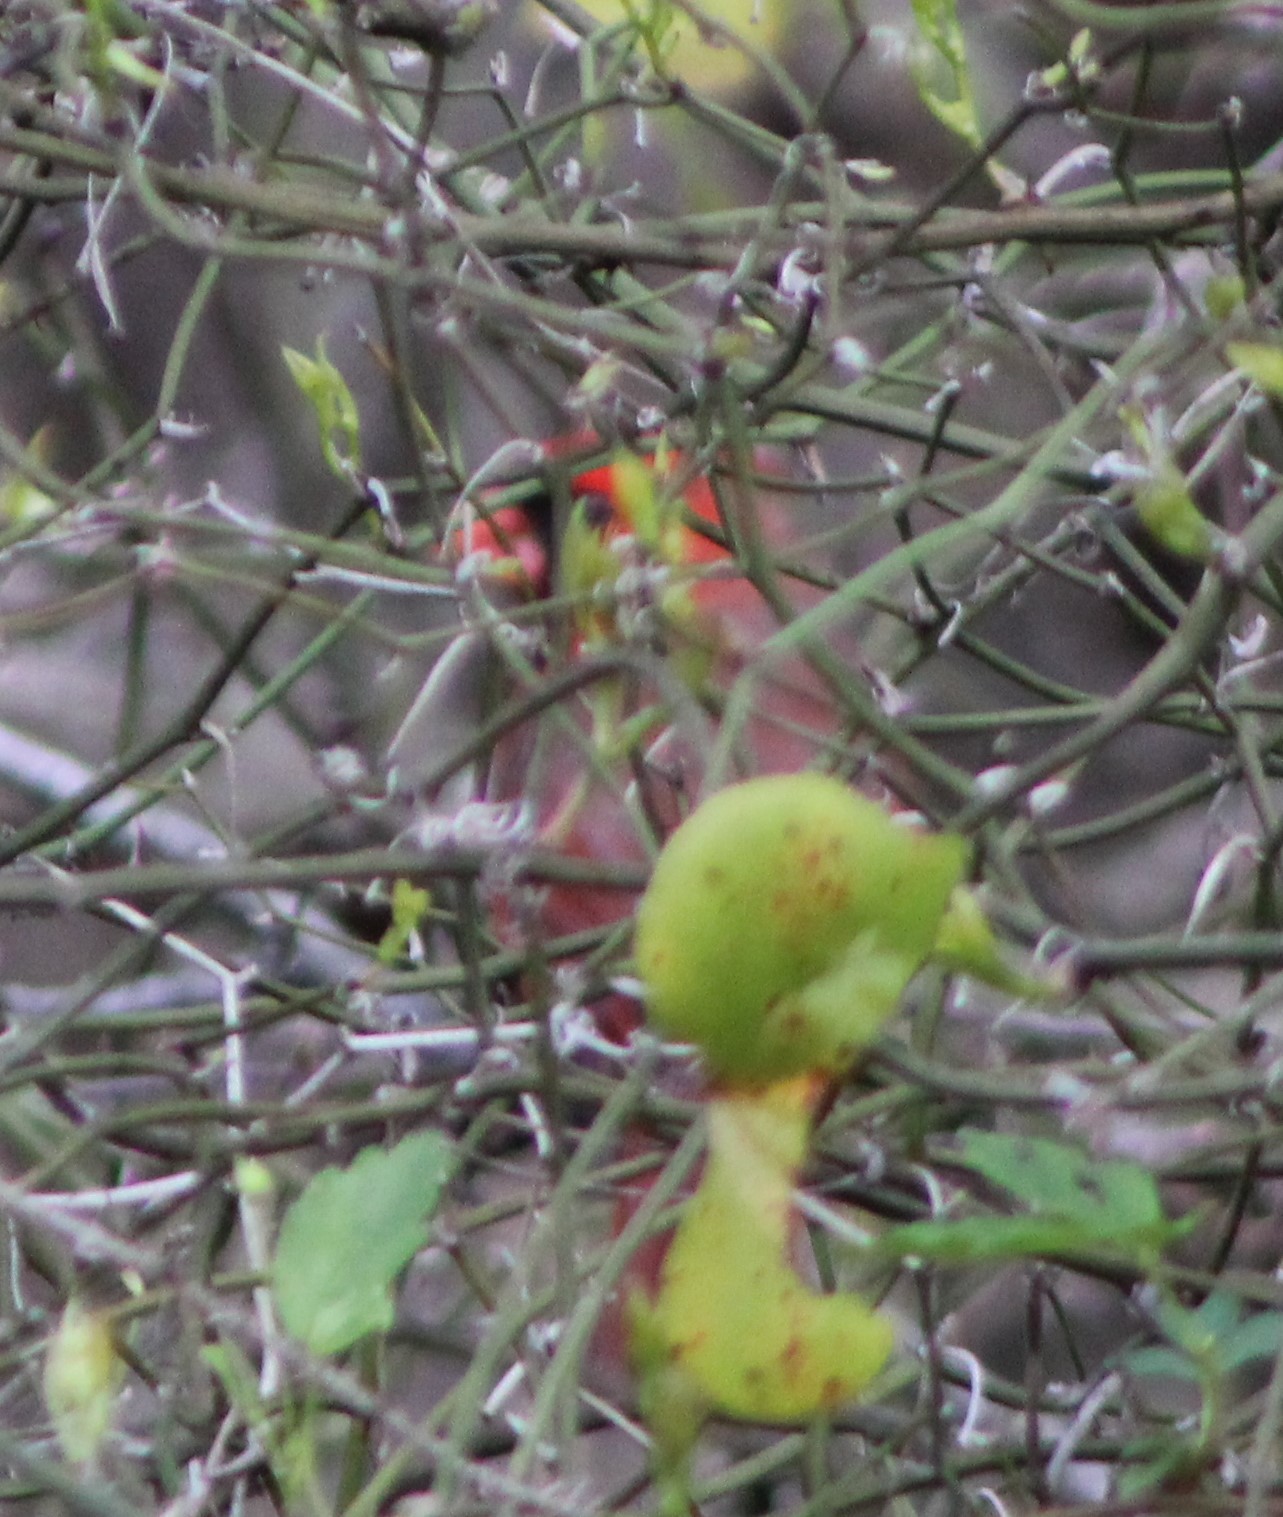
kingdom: Animalia
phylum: Chordata
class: Aves
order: Passeriformes
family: Cardinalidae
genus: Cardinalis
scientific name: Cardinalis cardinalis
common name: Northern cardinal
